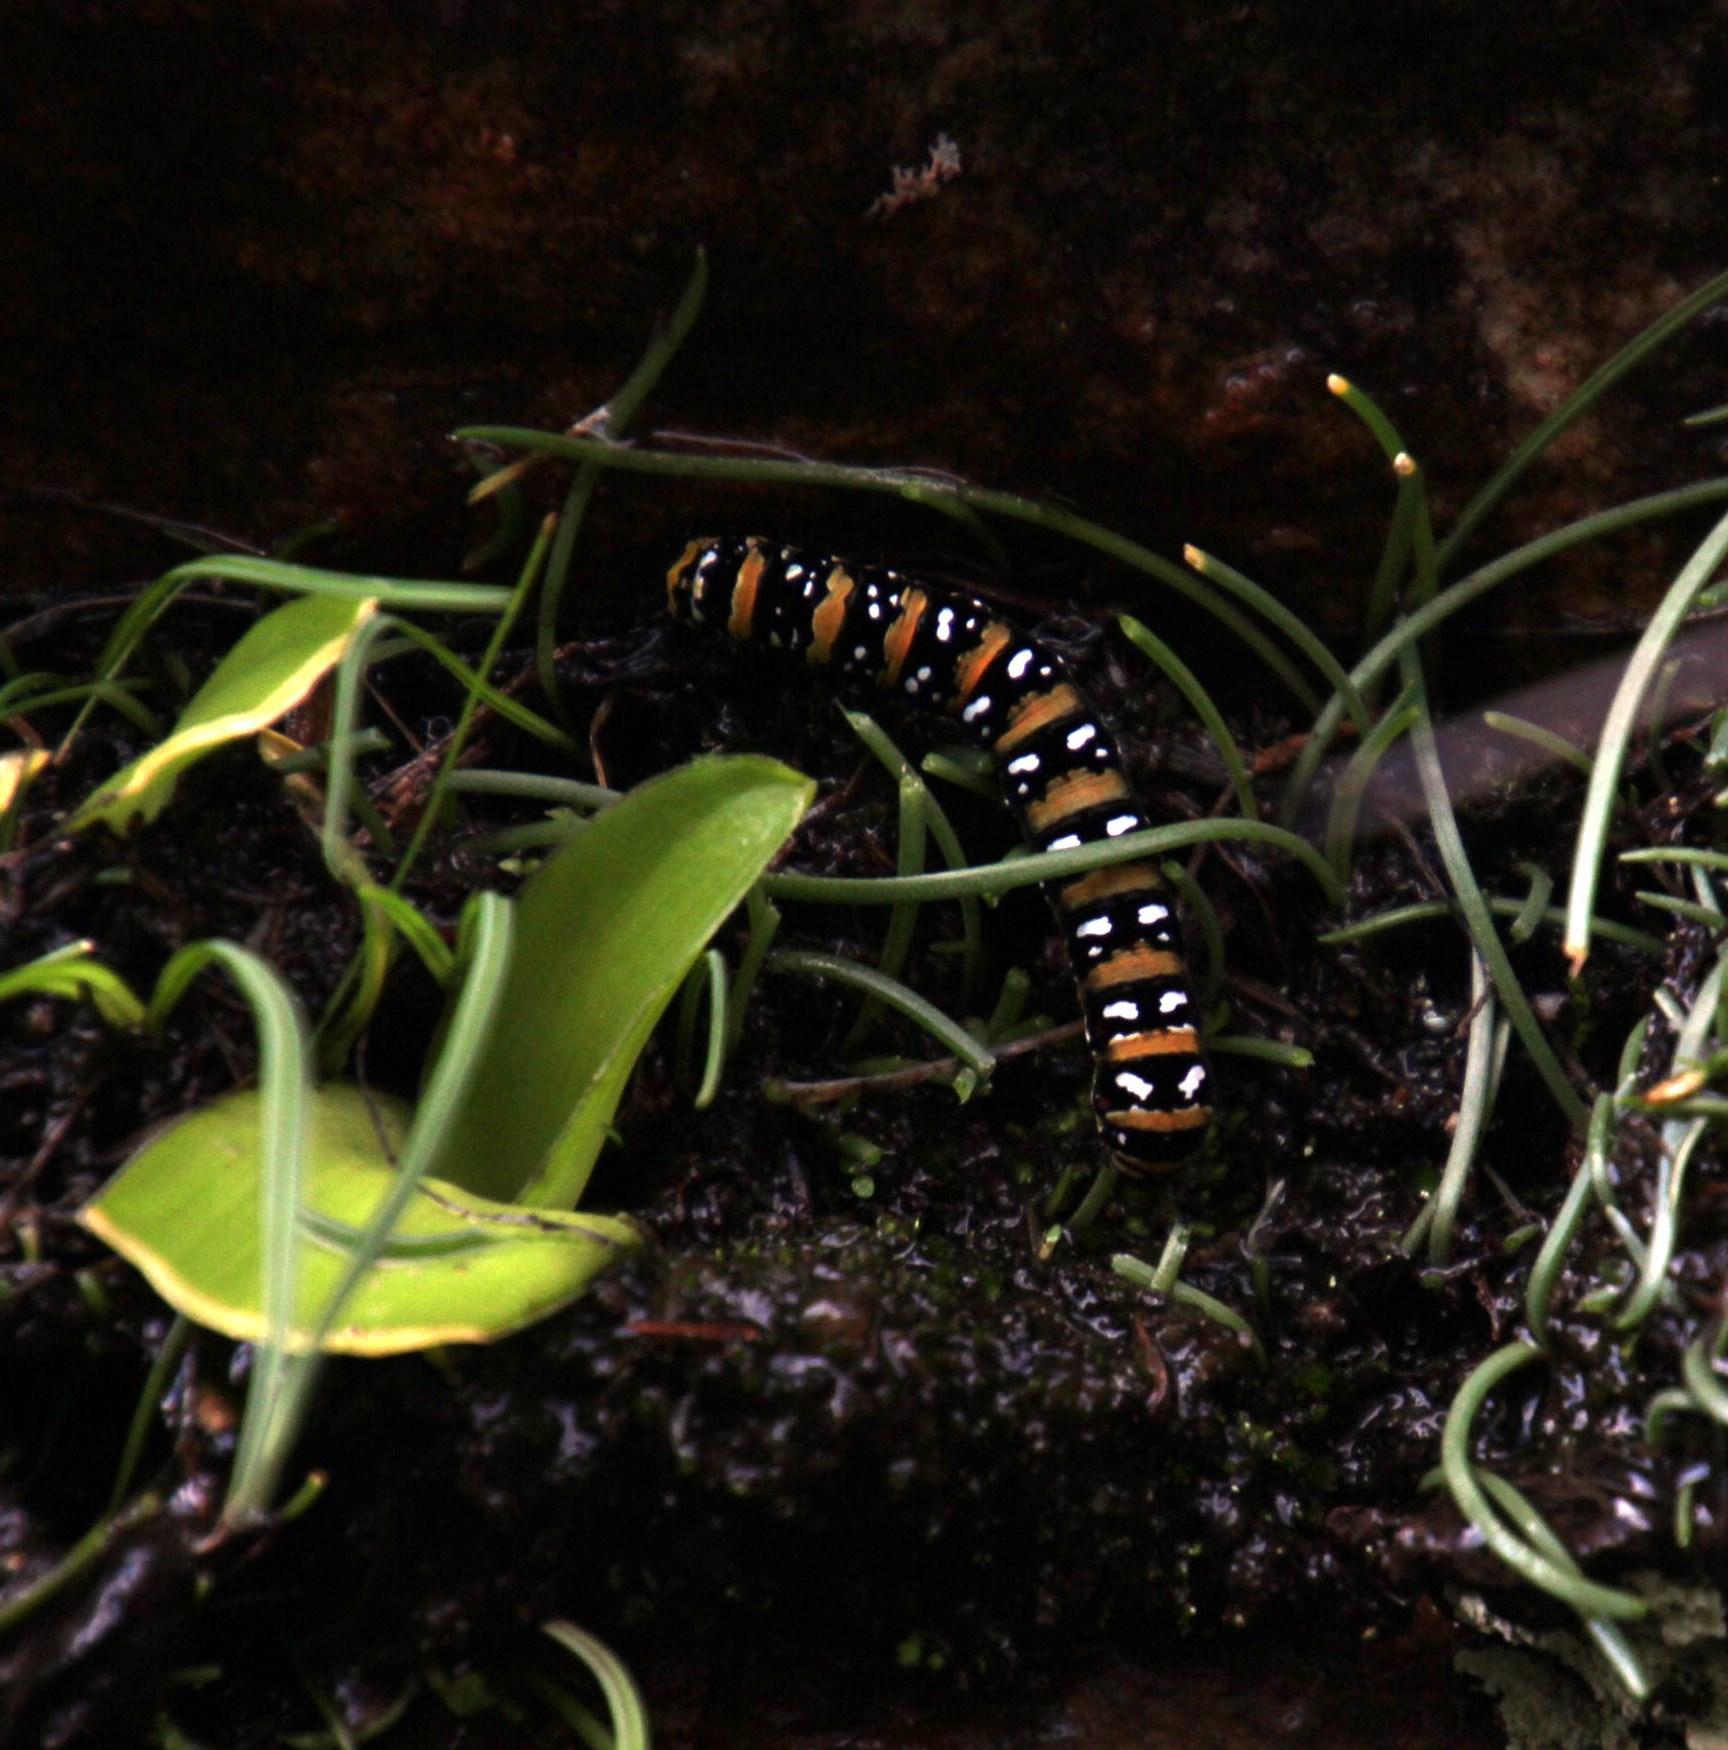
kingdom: Animalia
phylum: Arthropoda
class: Insecta
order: Lepidoptera
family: Noctuidae
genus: Klugeana
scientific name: Klugeana philoxalis
